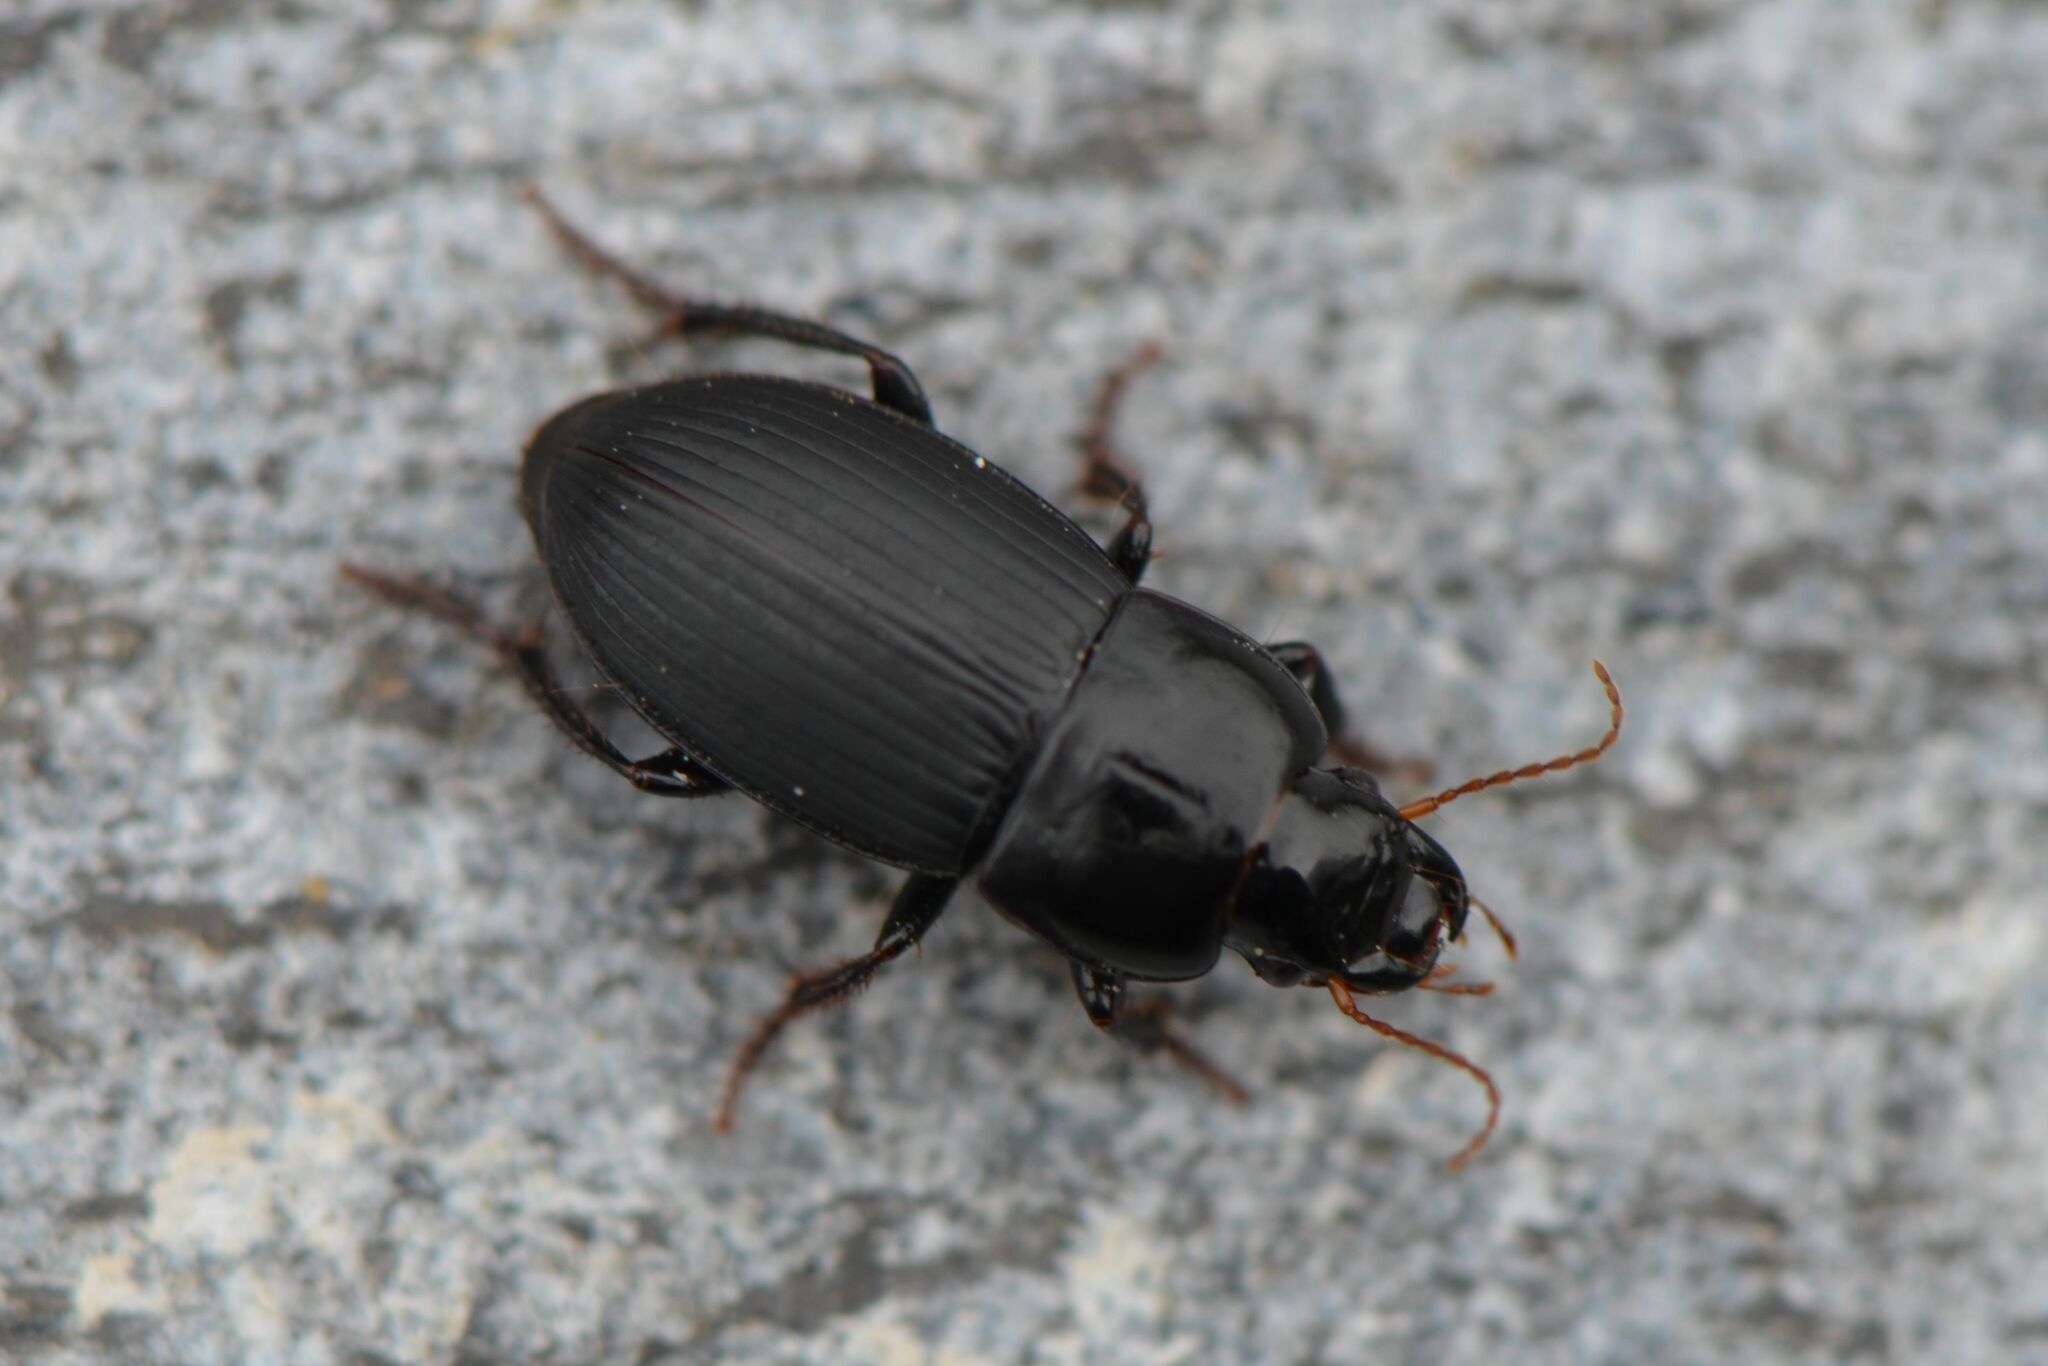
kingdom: Animalia
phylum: Arthropoda
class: Insecta
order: Coleoptera
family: Carabidae
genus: Harpalus
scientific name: Harpalus tardus
